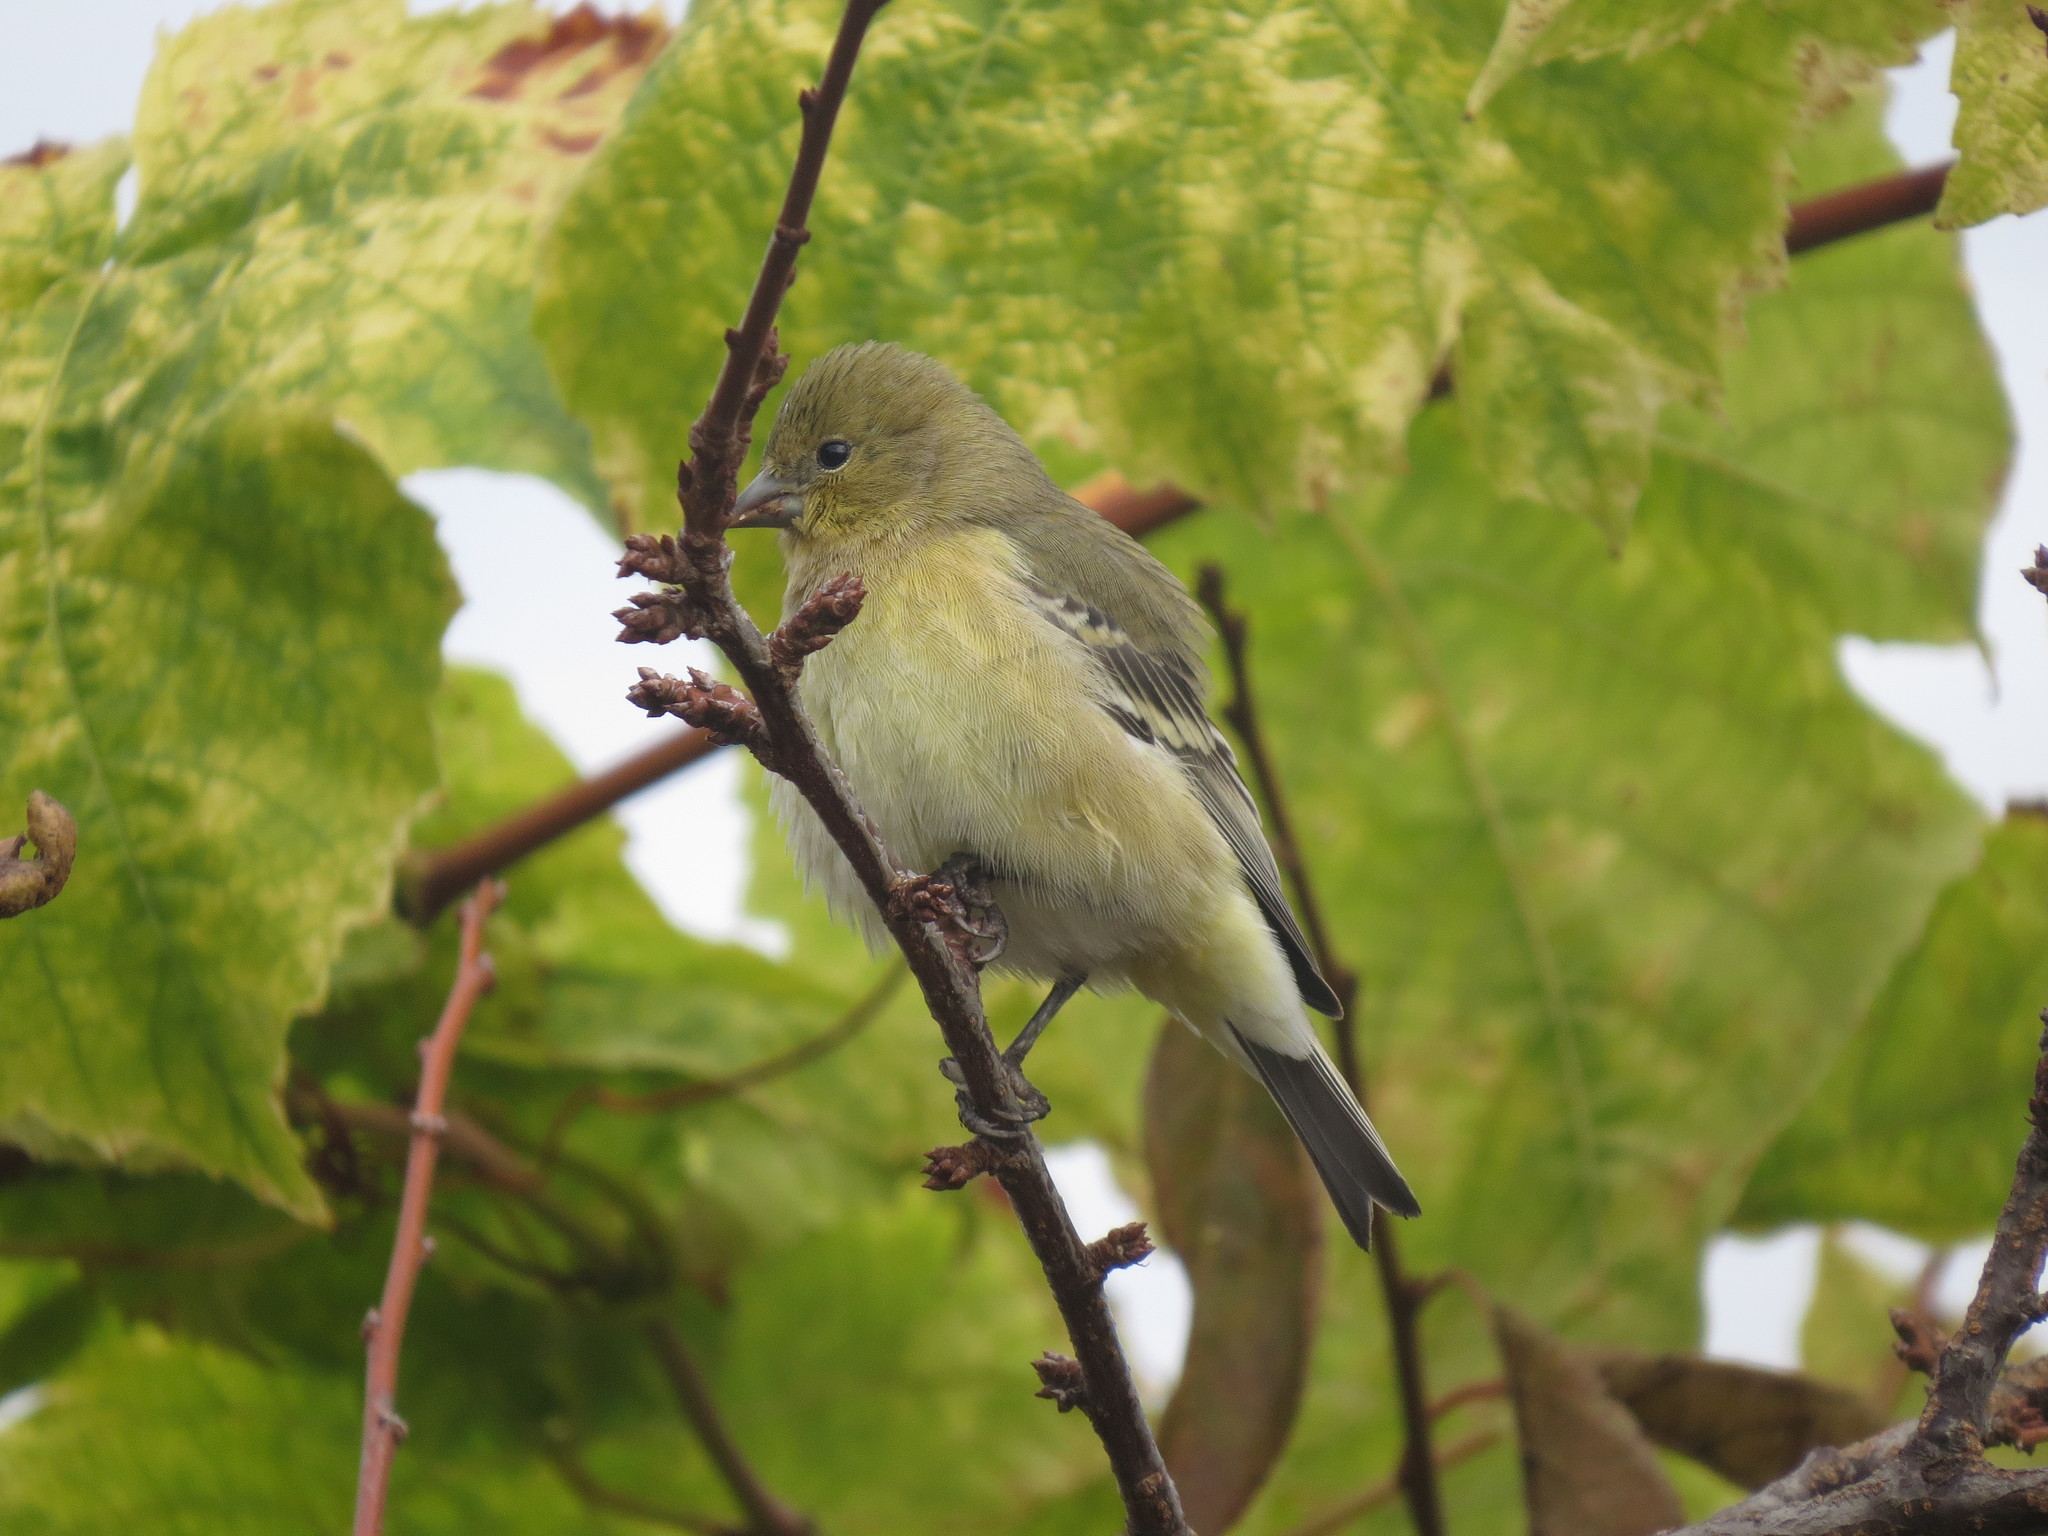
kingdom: Animalia
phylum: Chordata
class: Aves
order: Passeriformes
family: Fringillidae
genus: Spinus
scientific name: Spinus psaltria
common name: Lesser goldfinch
